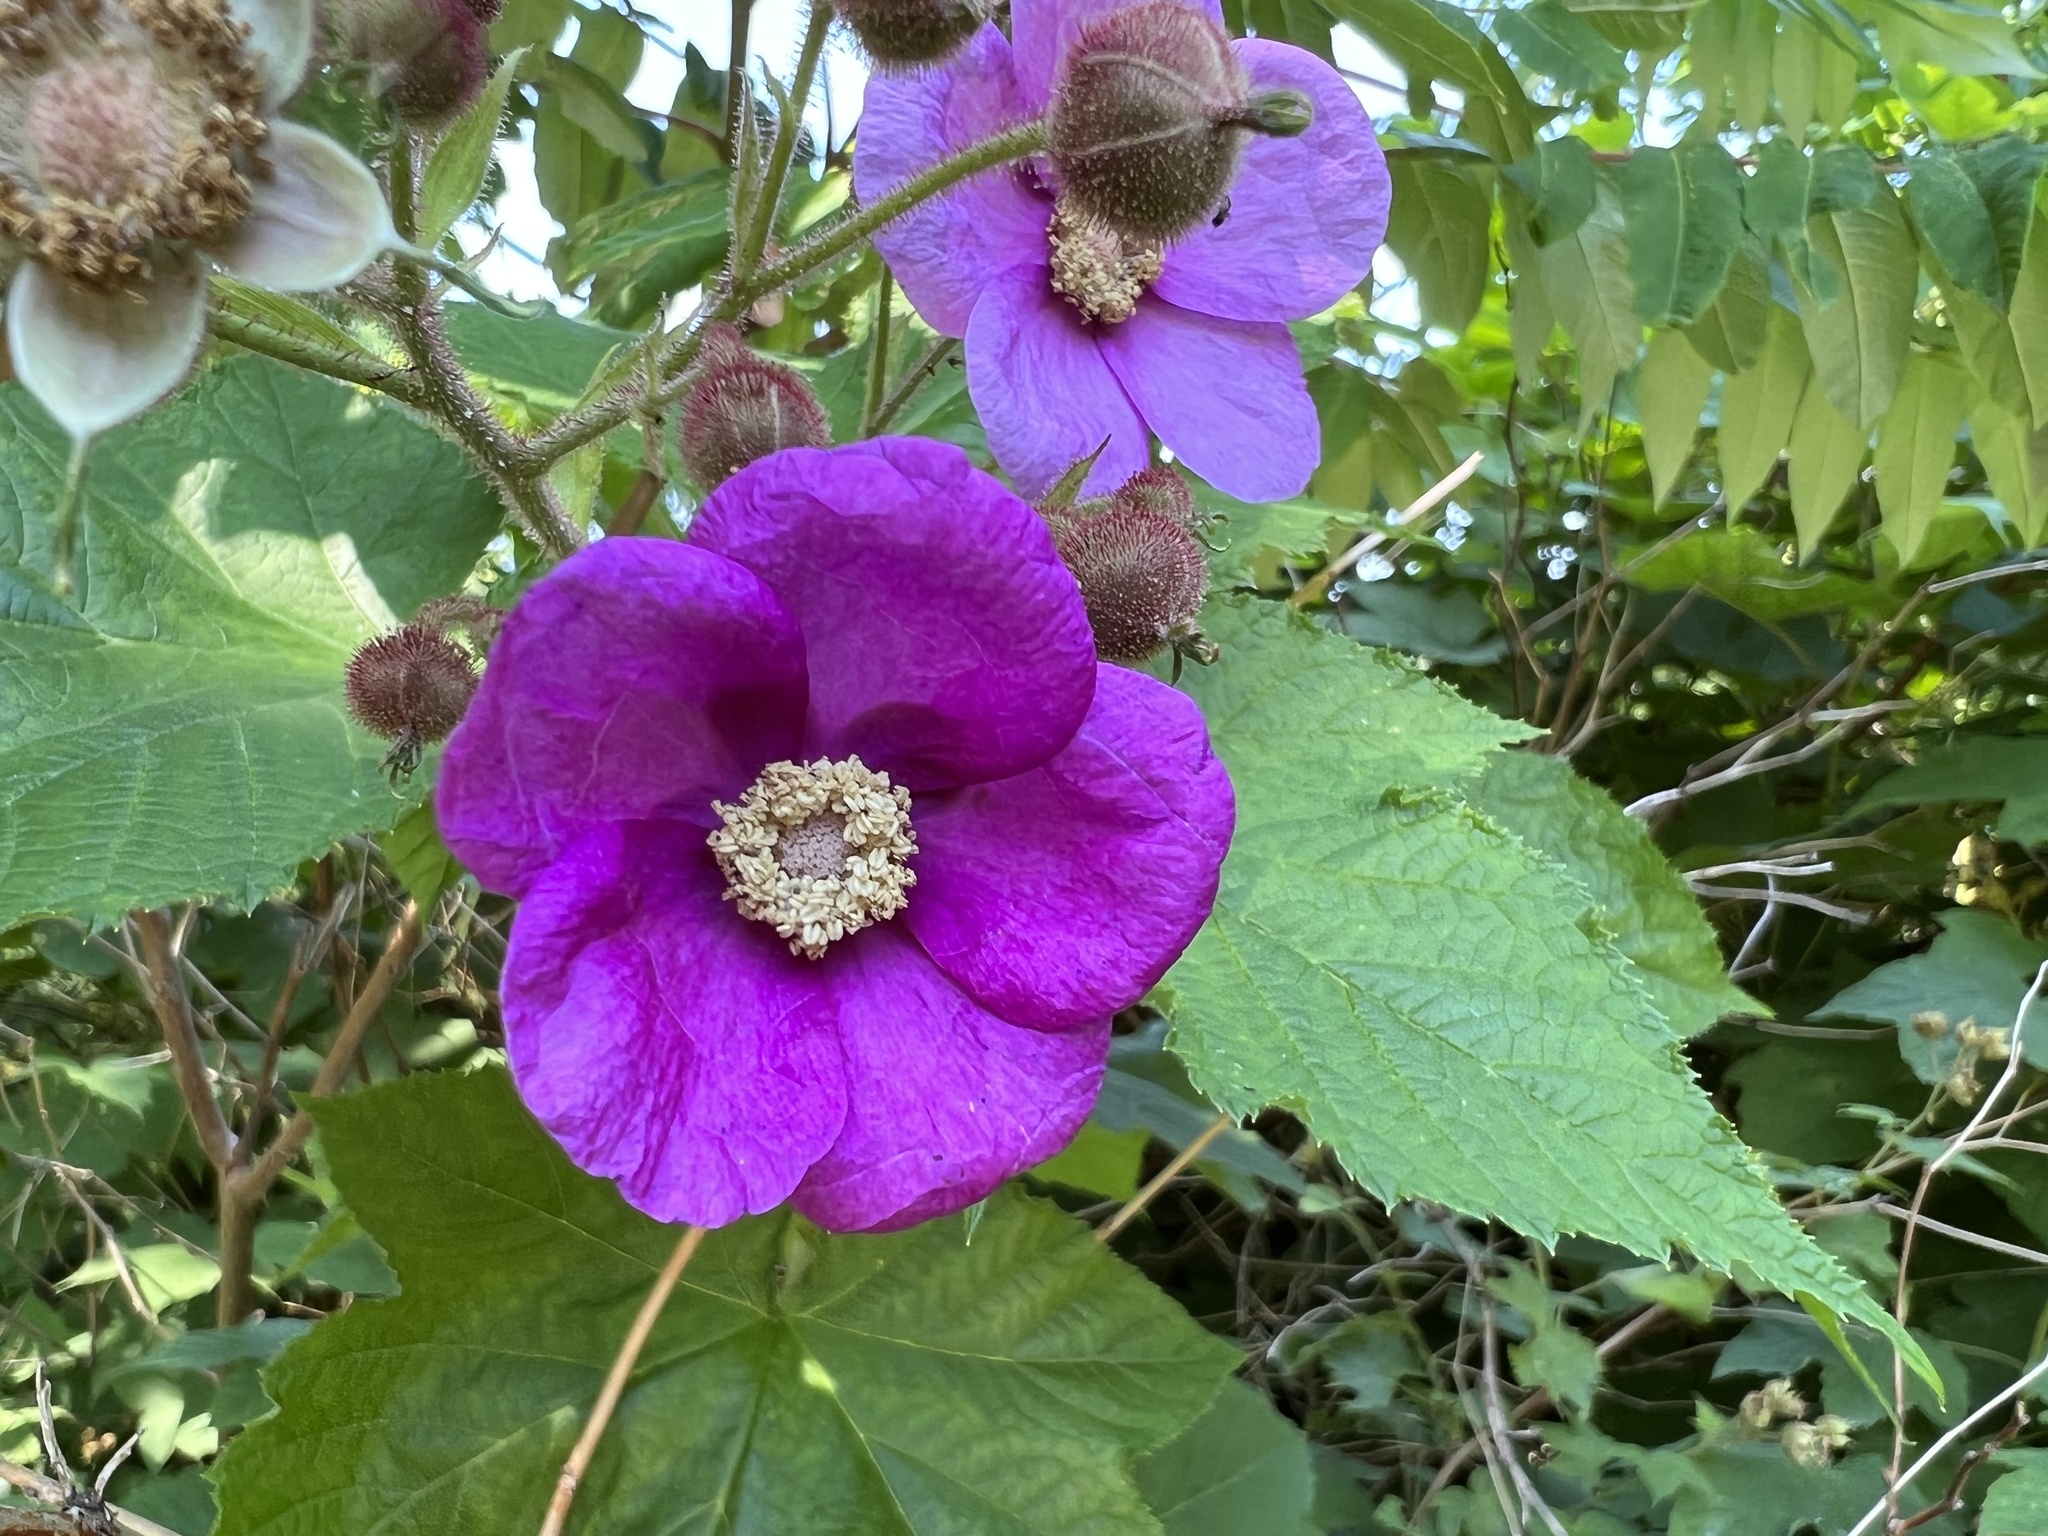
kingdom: Plantae
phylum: Tracheophyta
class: Magnoliopsida
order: Rosales
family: Rosaceae
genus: Rubus
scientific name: Rubus odoratus
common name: Purple-flowered raspberry
